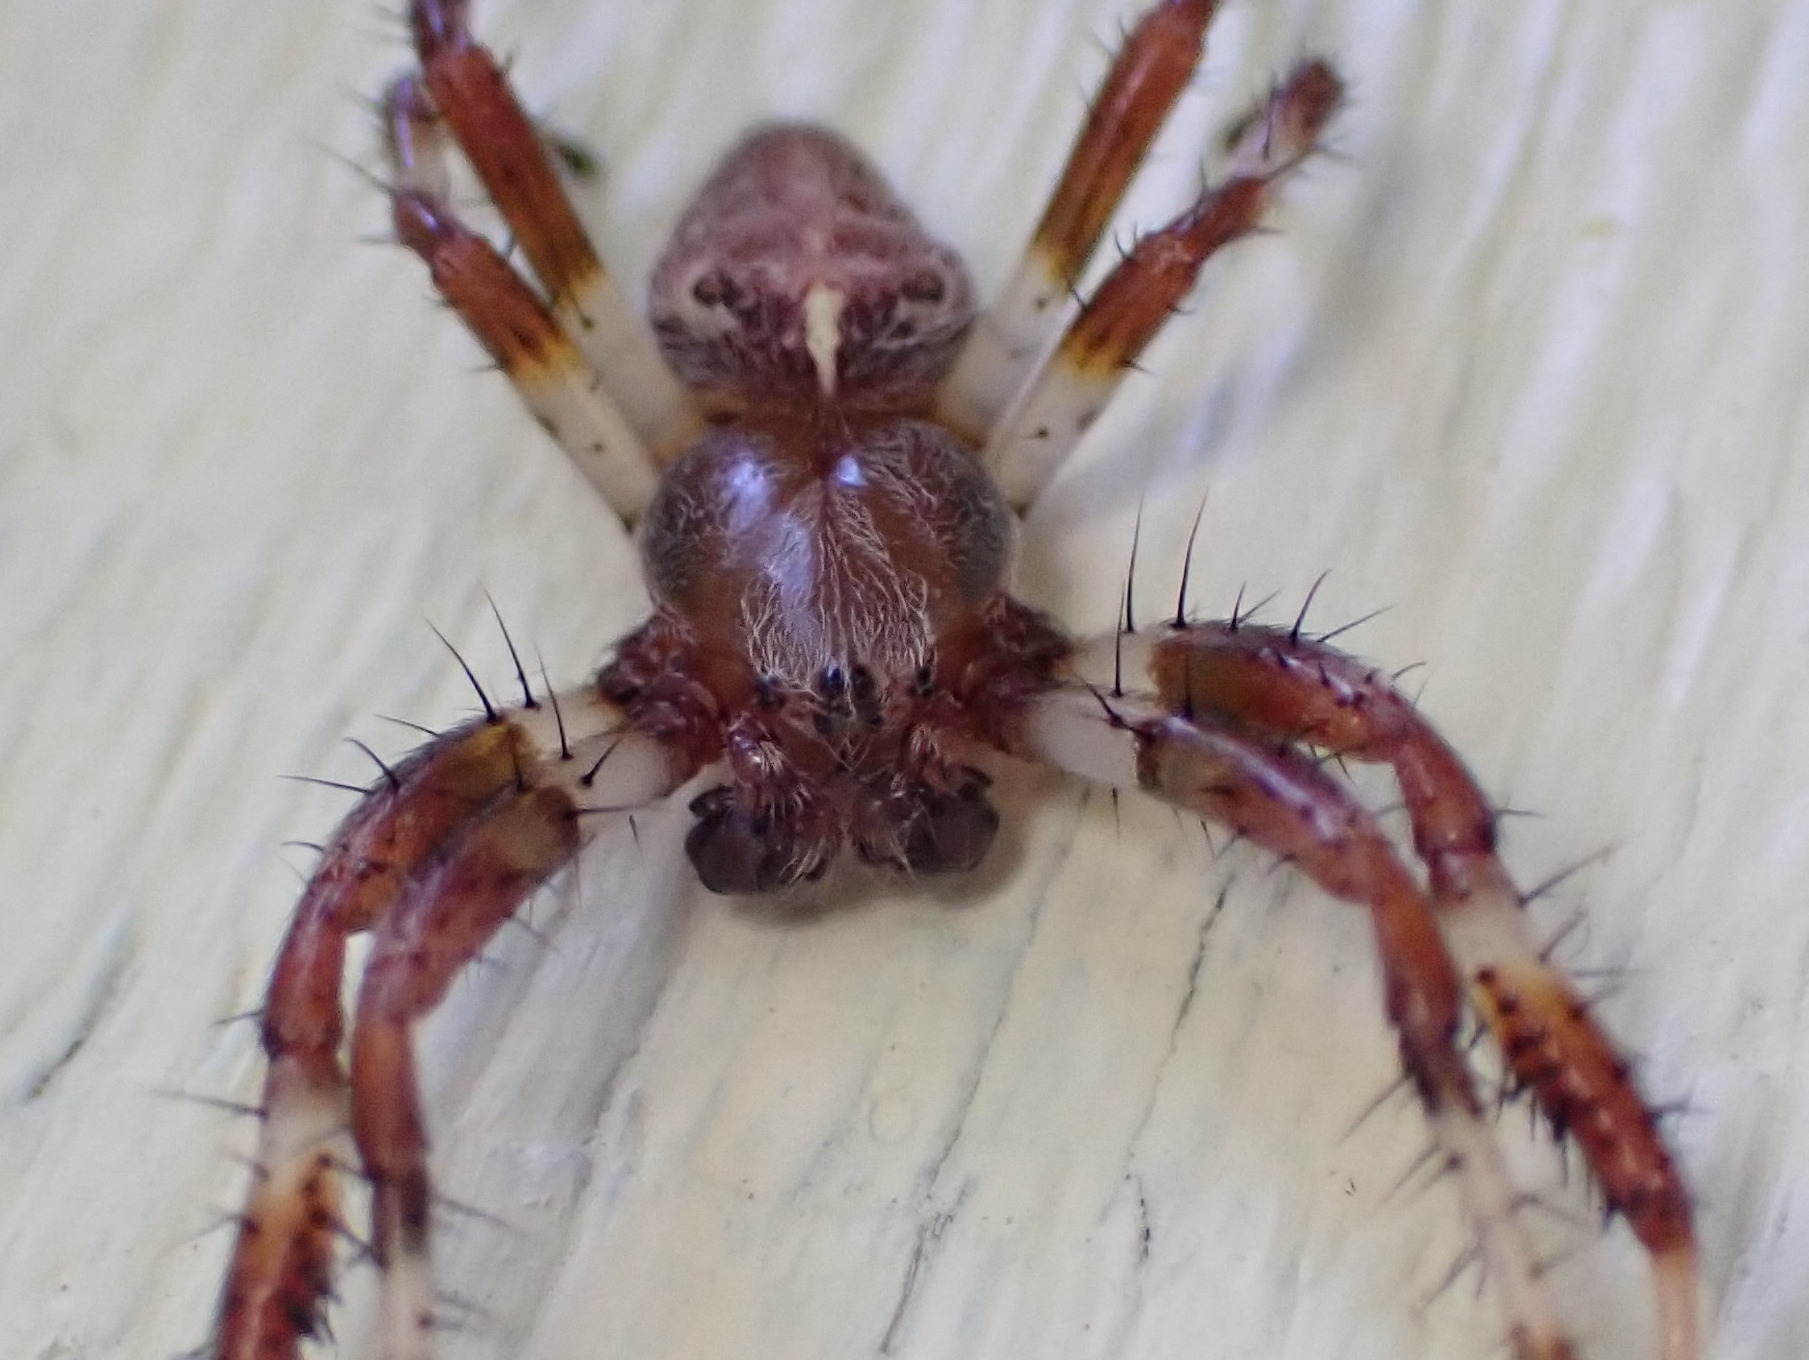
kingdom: Animalia
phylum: Arthropoda
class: Arachnida
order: Araneae
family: Araneidae
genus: Araneus
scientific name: Araneus marmoreus
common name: Marbled orbweaver
